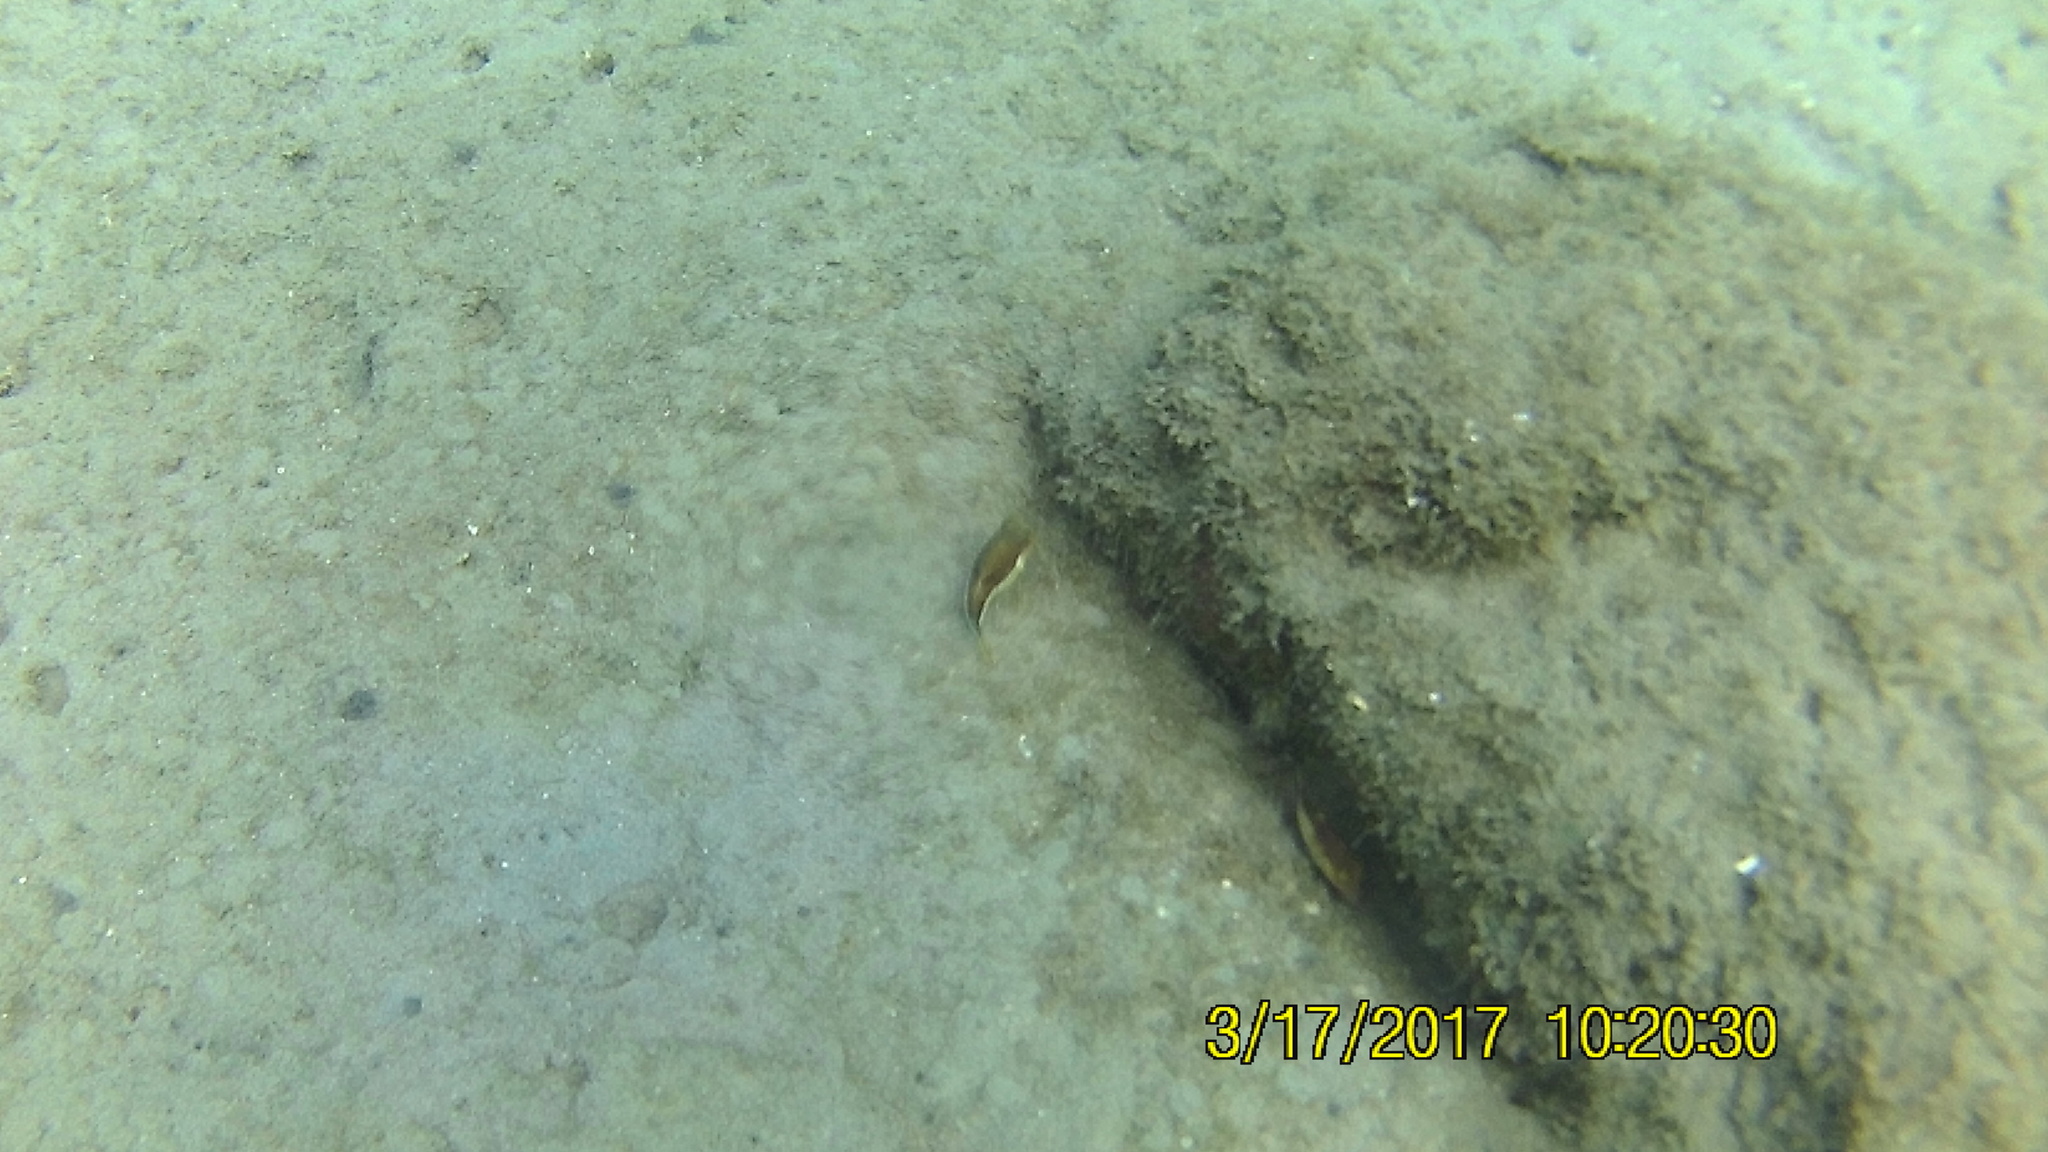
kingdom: Animalia
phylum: Chordata
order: Tetraodontiformes
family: Tetraodontidae
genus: Canthigaster
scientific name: Canthigaster rostrata
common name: Caribbean sharpnose-puffer
